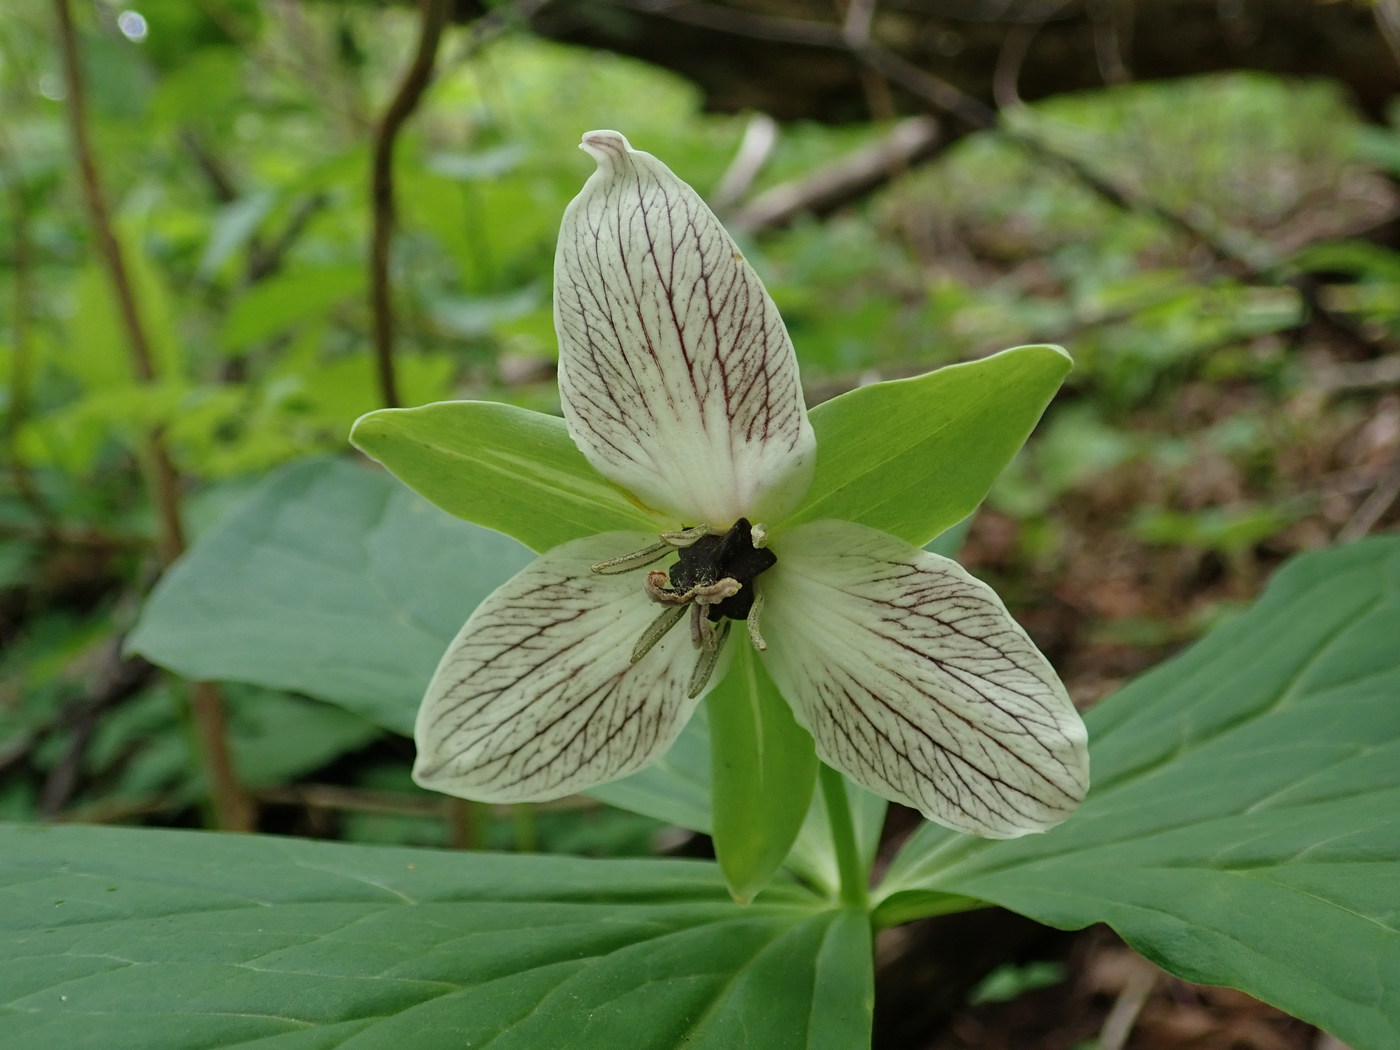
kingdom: Plantae
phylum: Tracheophyta
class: Liliopsida
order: Liliales
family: Melanthiaceae
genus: Trillium
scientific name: Trillium erectum
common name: Purple trillium
